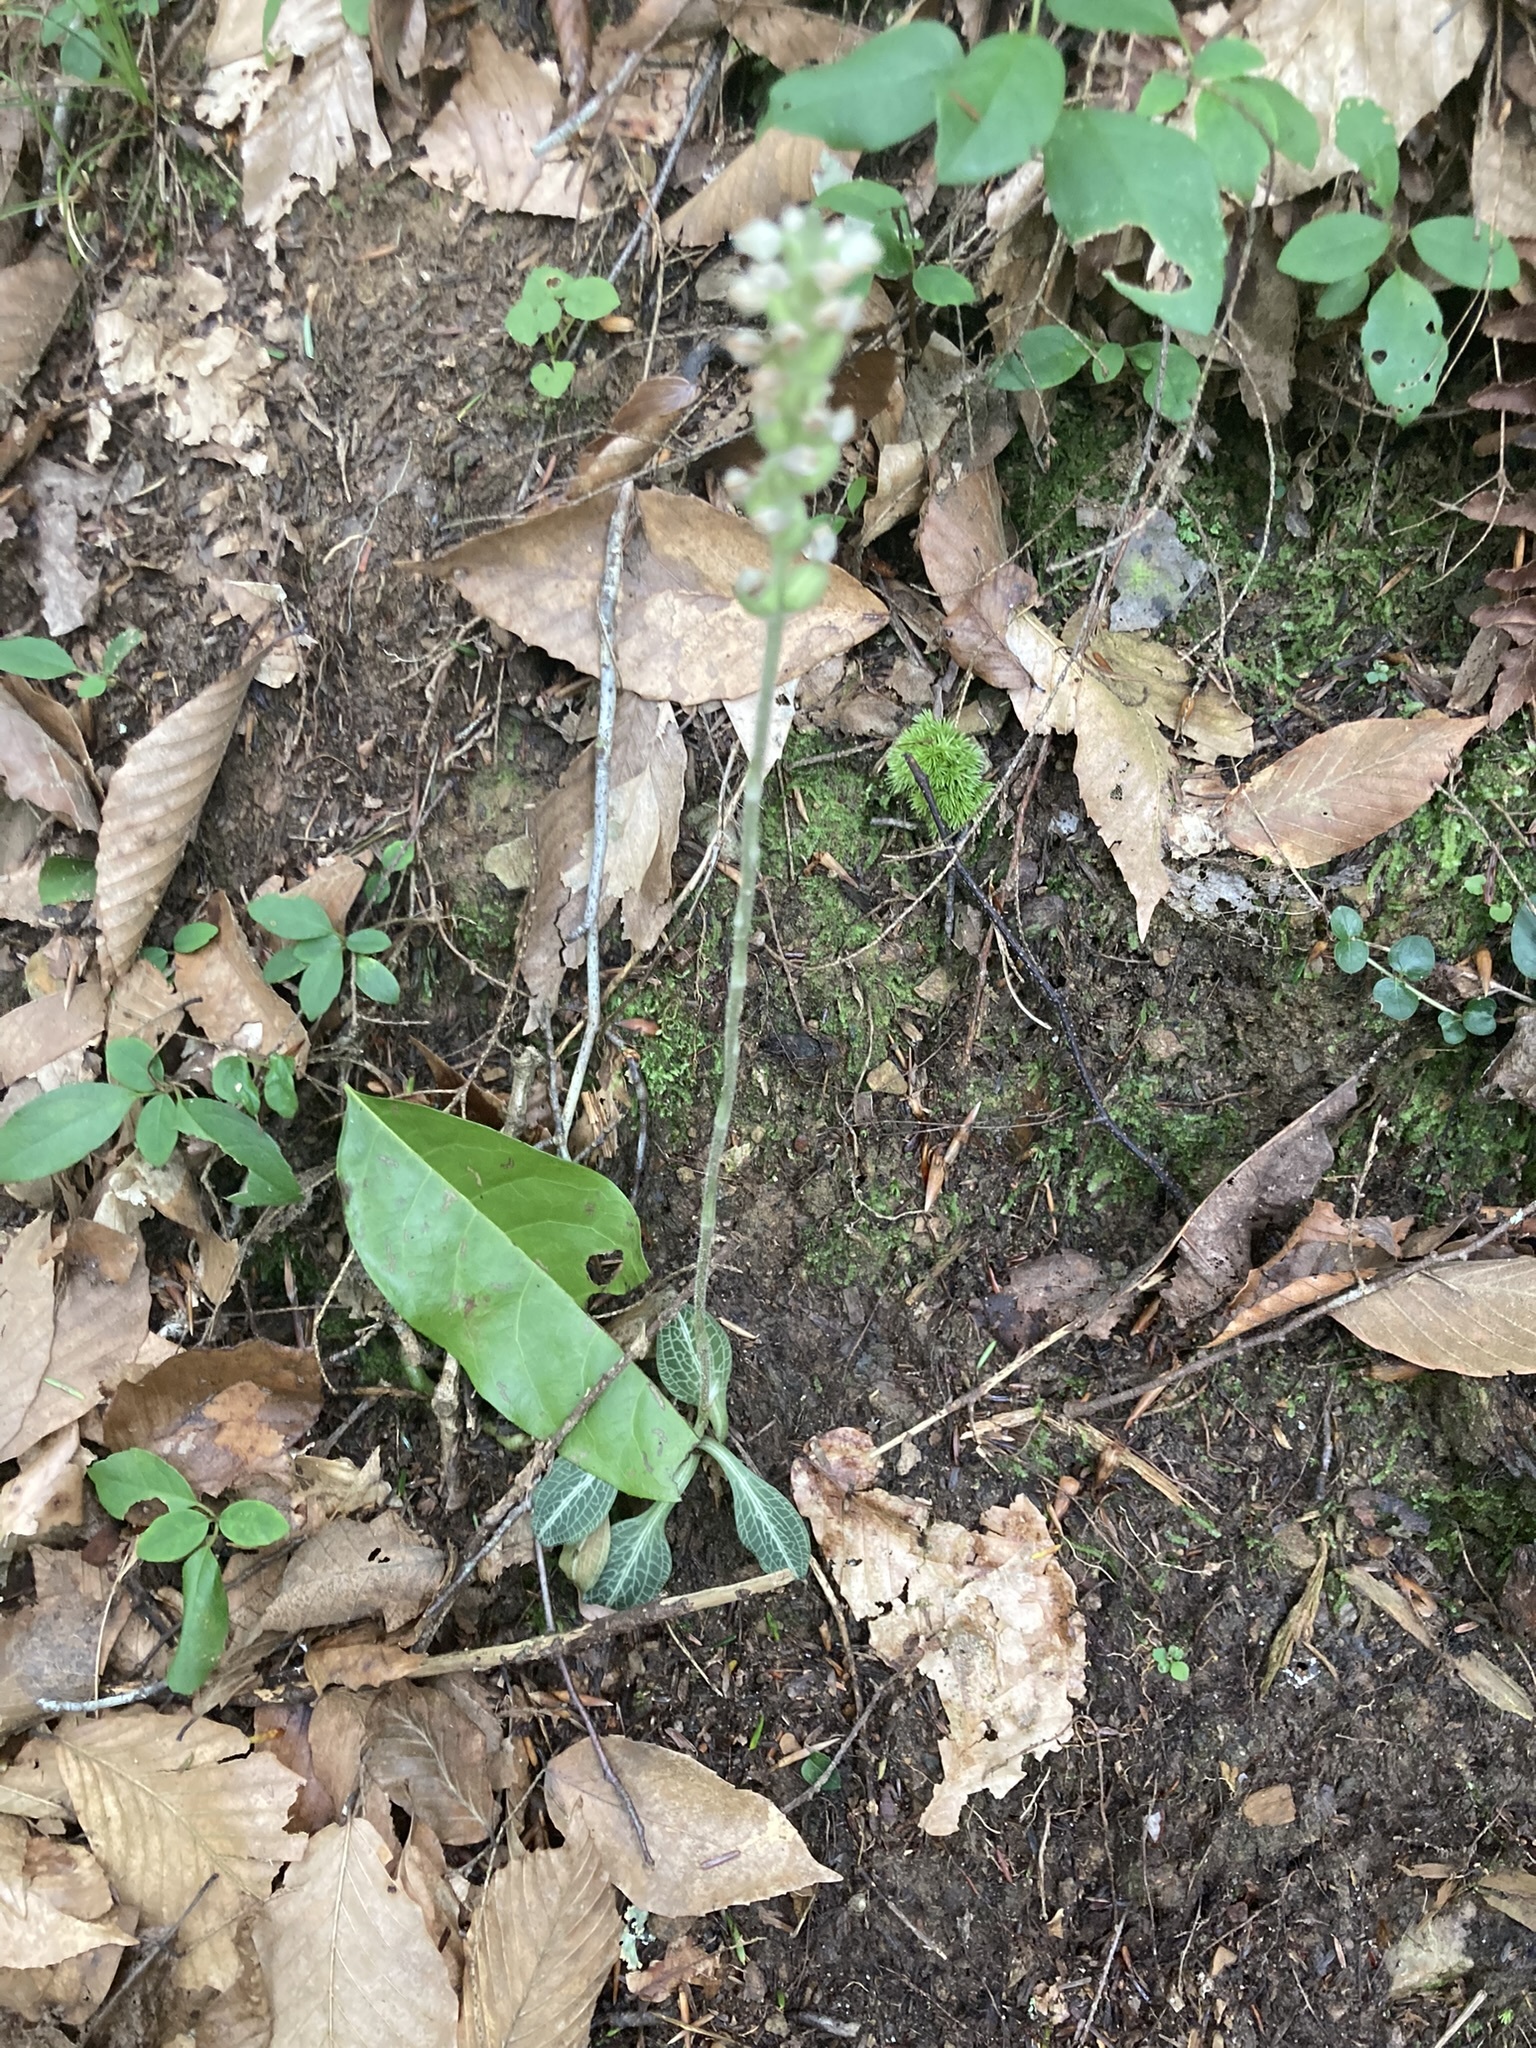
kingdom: Plantae
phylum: Tracheophyta
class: Liliopsida
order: Asparagales
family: Orchidaceae
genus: Goodyera
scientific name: Goodyera pubescens
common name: Downy rattlesnake-plantain
